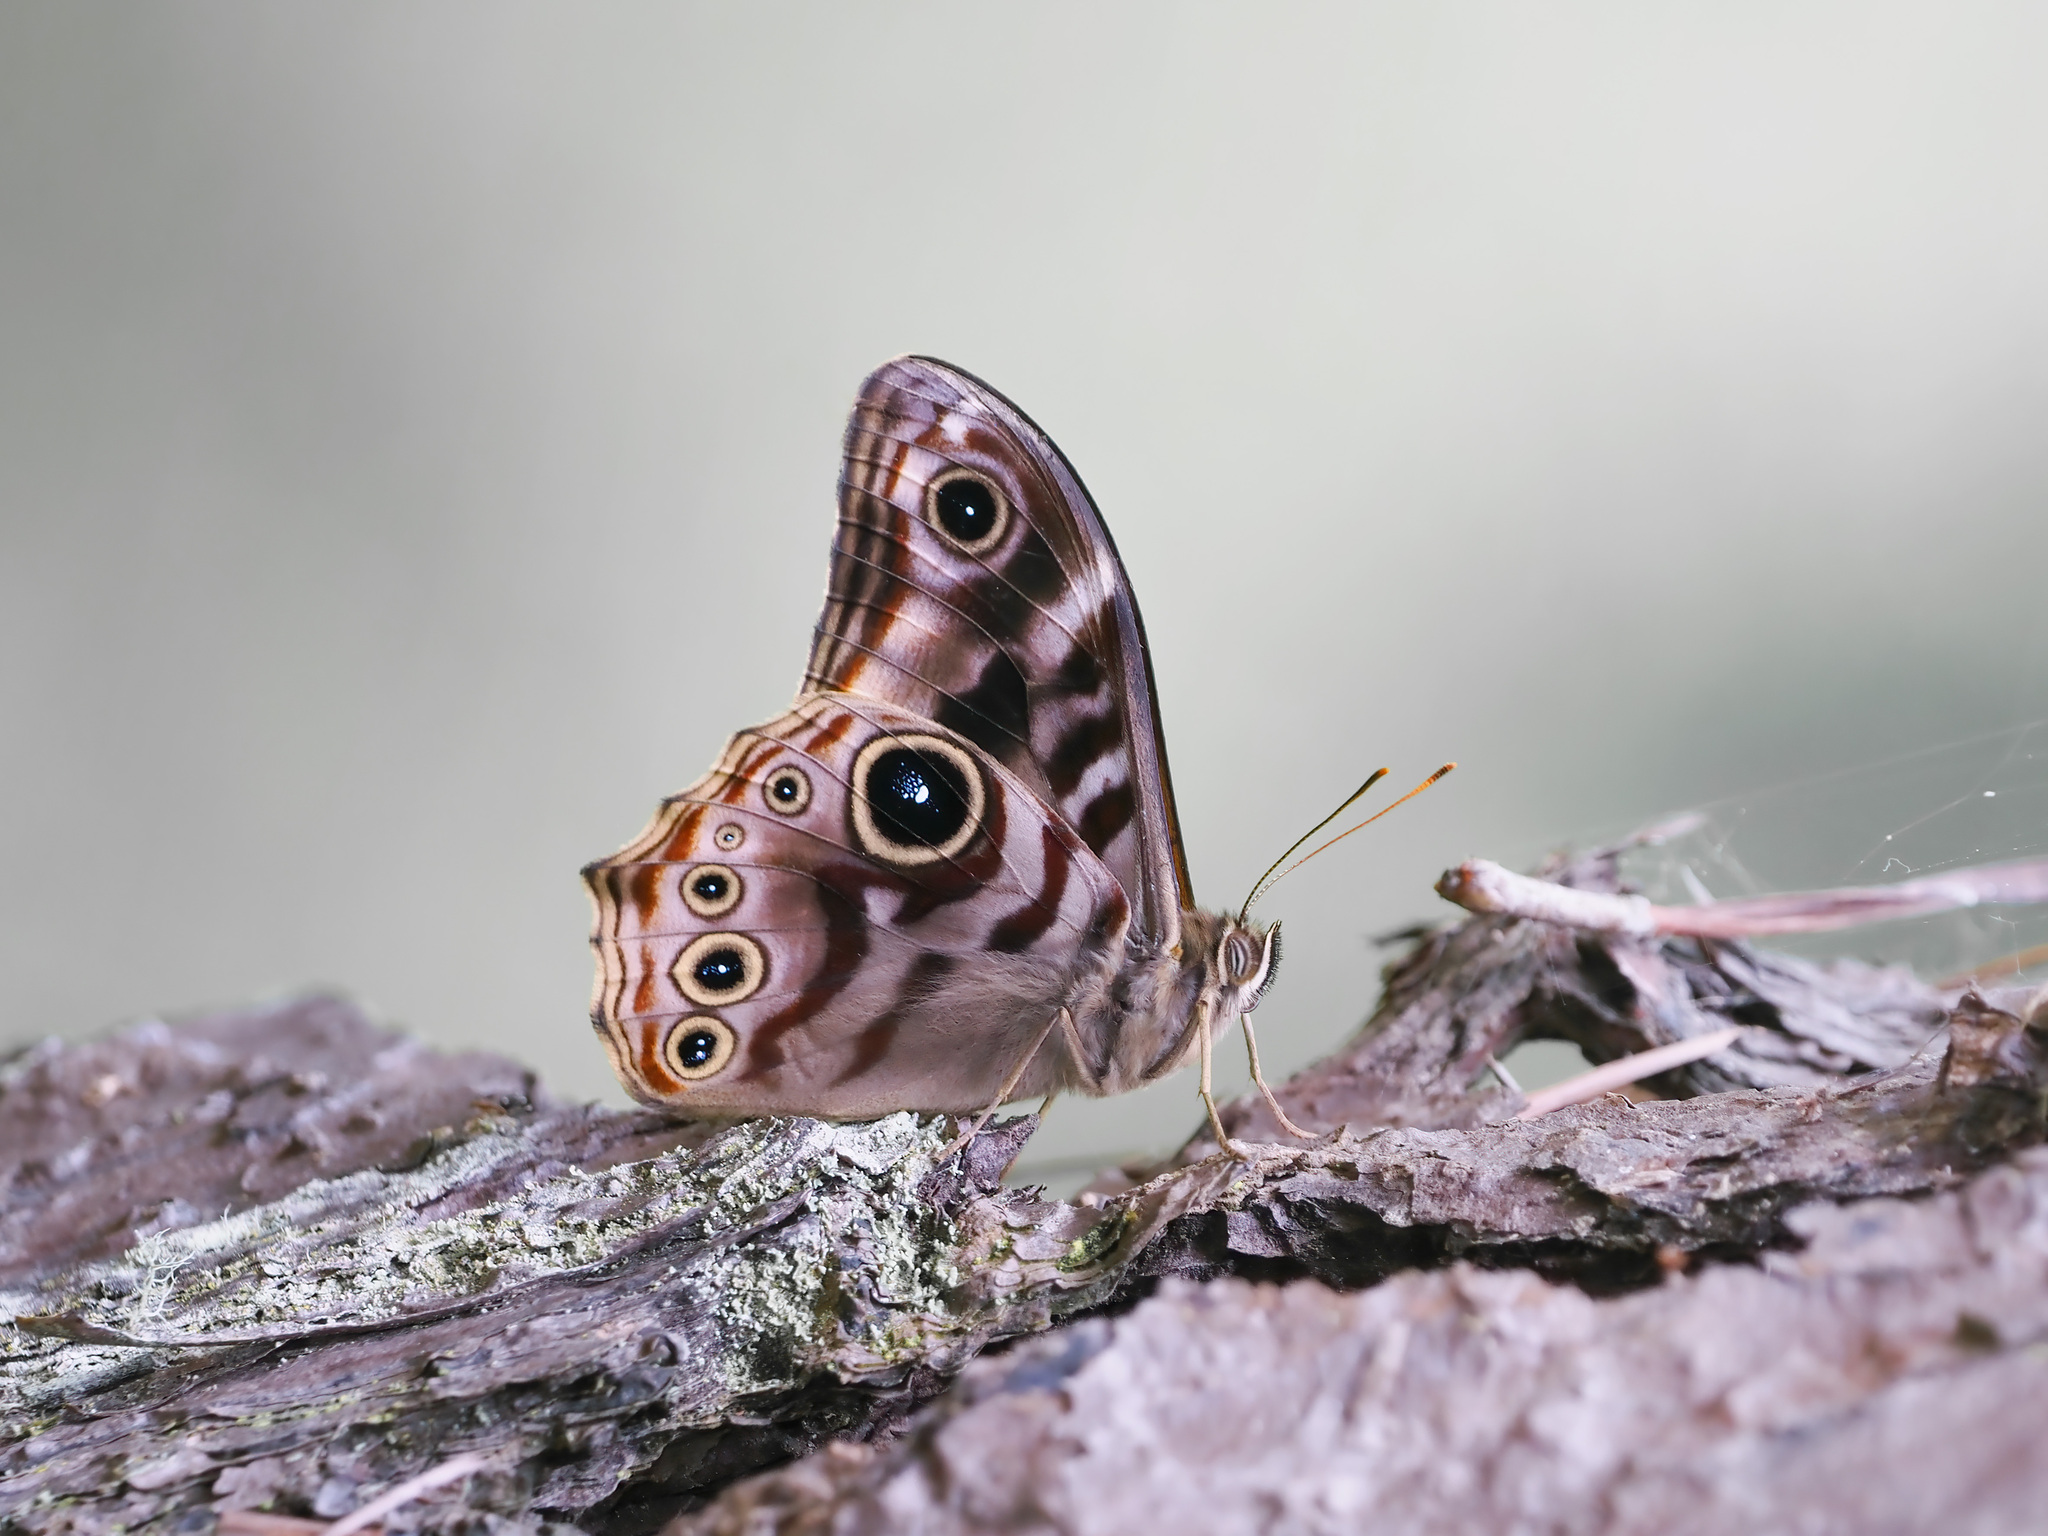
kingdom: Animalia
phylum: Arthropoda
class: Insecta
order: Lepidoptera
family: Nymphalidae
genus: Lethe
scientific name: Lethe darena
